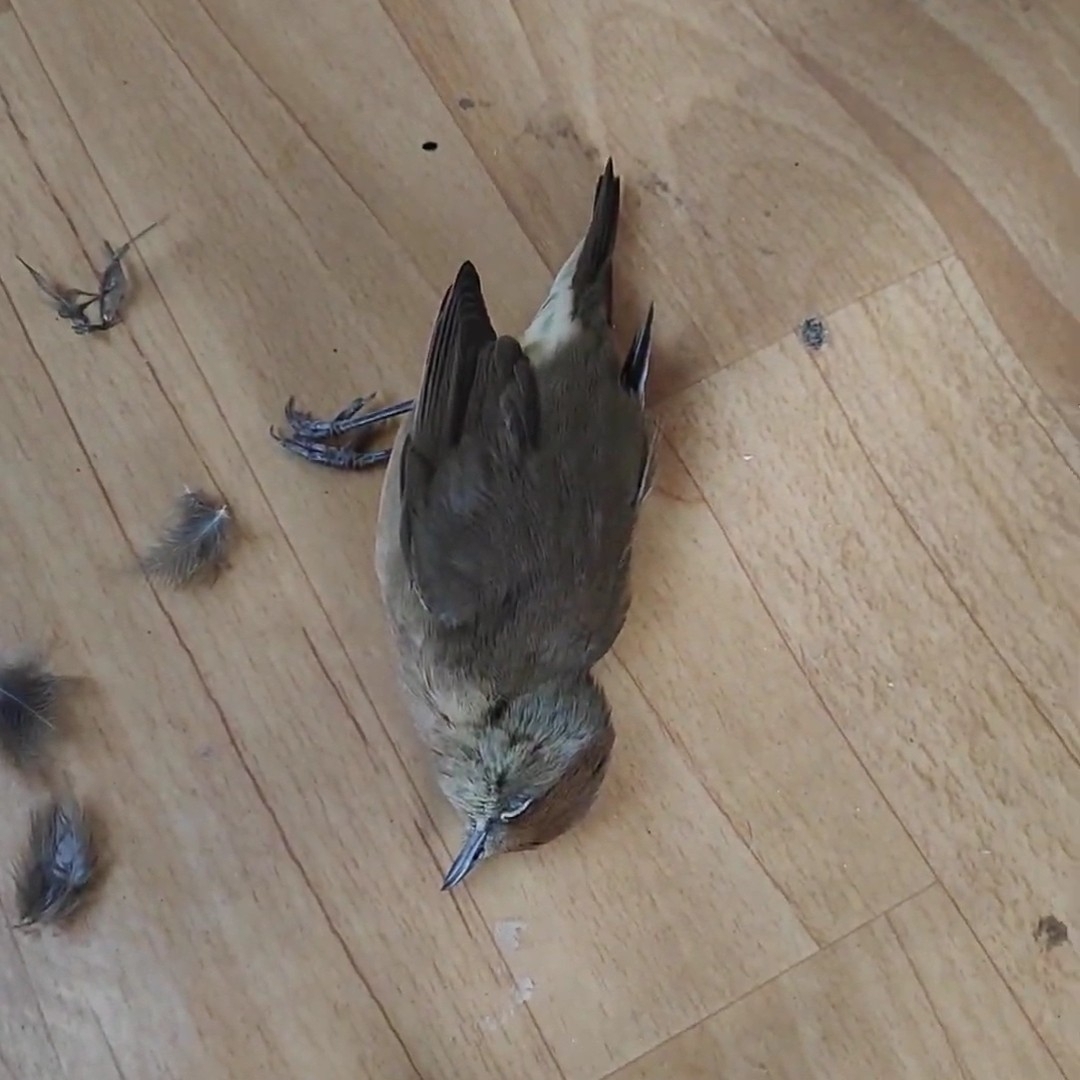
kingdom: Animalia
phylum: Chordata
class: Aves
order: Passeriformes
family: Sylviidae
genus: Sylvia
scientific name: Sylvia atricapilla
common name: Eurasian blackcap
